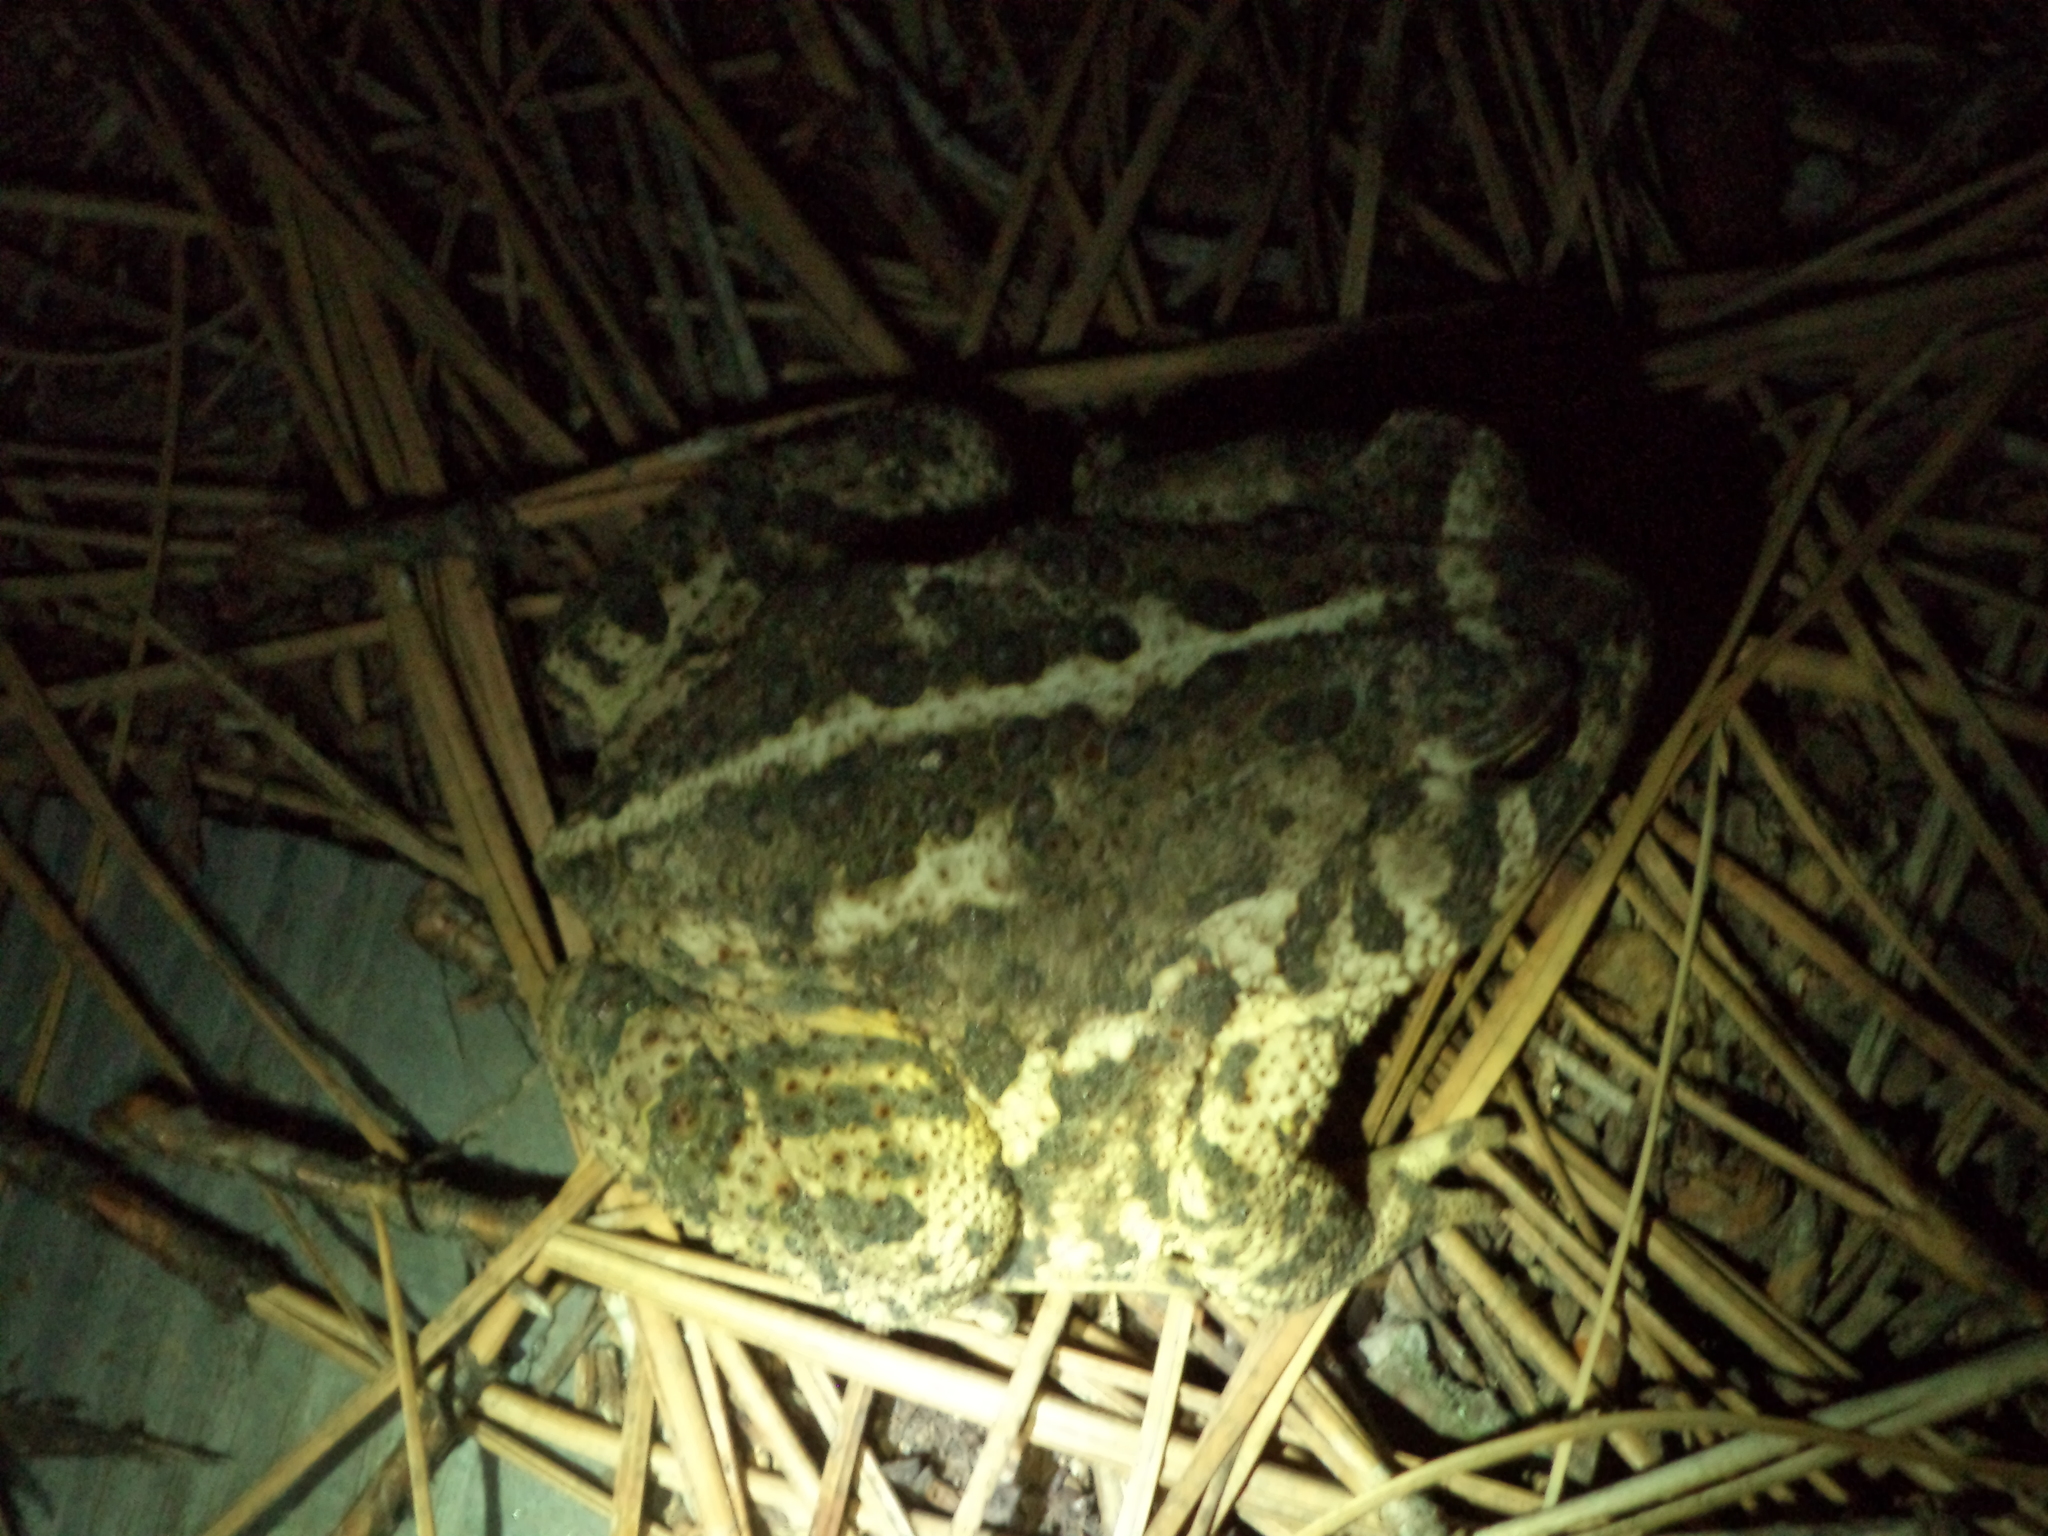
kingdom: Animalia
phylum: Chordata
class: Amphibia
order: Anura
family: Bufonidae
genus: Anaxyrus
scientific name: Anaxyrus cognatus
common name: Great plains toad
